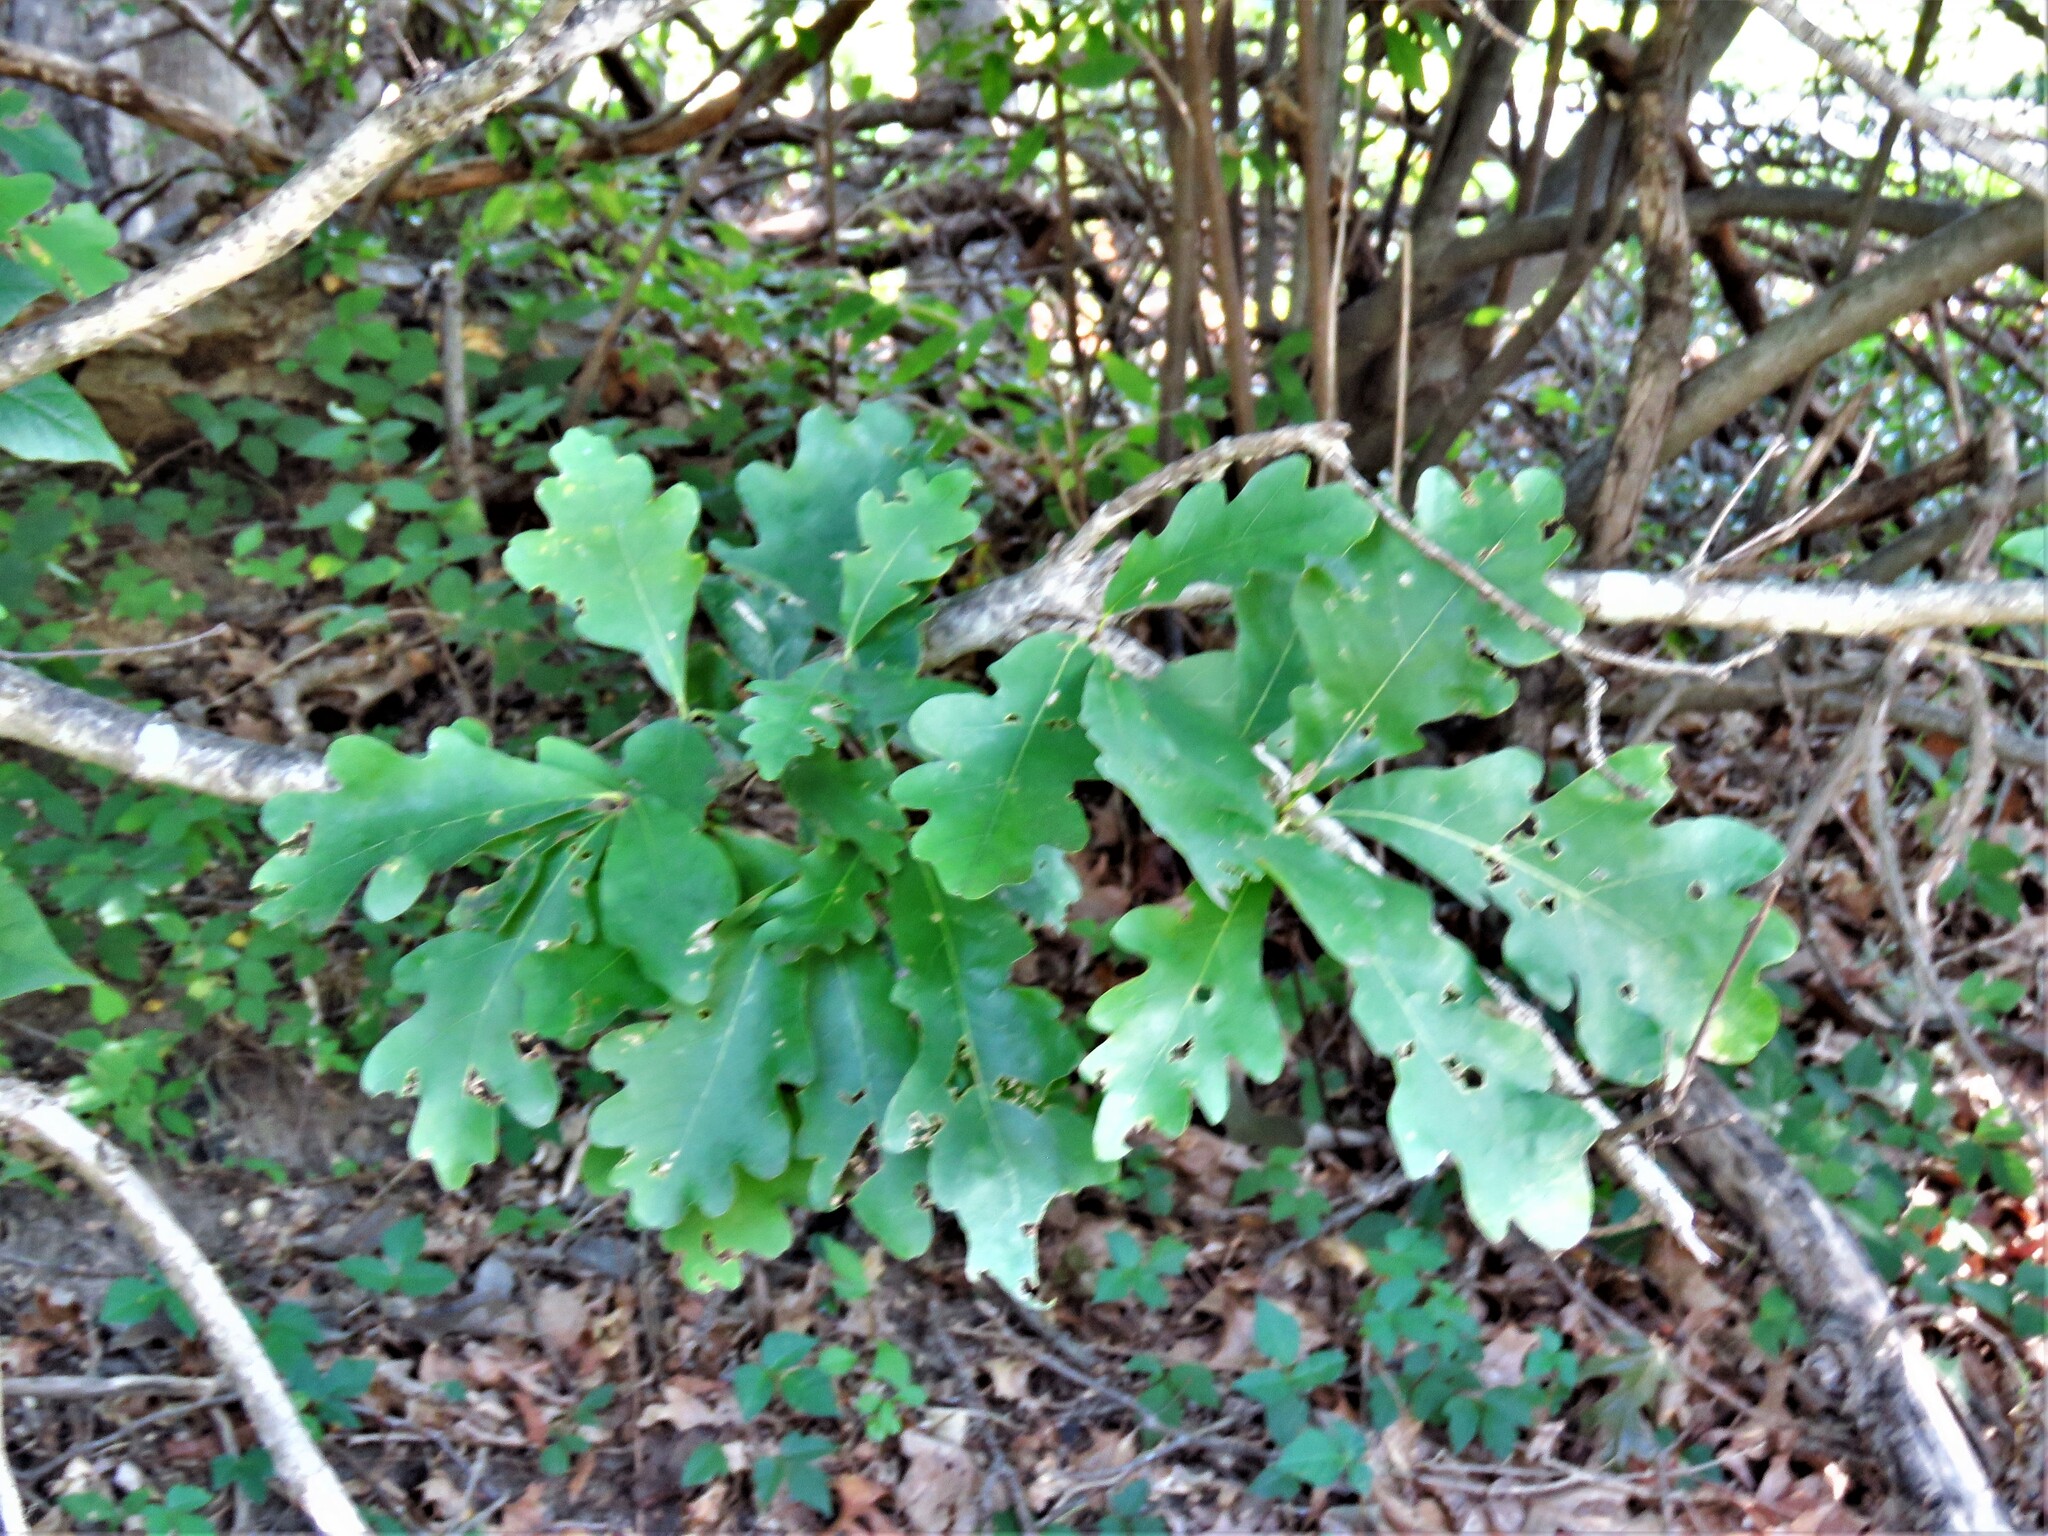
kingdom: Plantae
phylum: Tracheophyta
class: Magnoliopsida
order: Fagales
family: Fagaceae
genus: Quercus
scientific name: Quercus alba
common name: White oak
